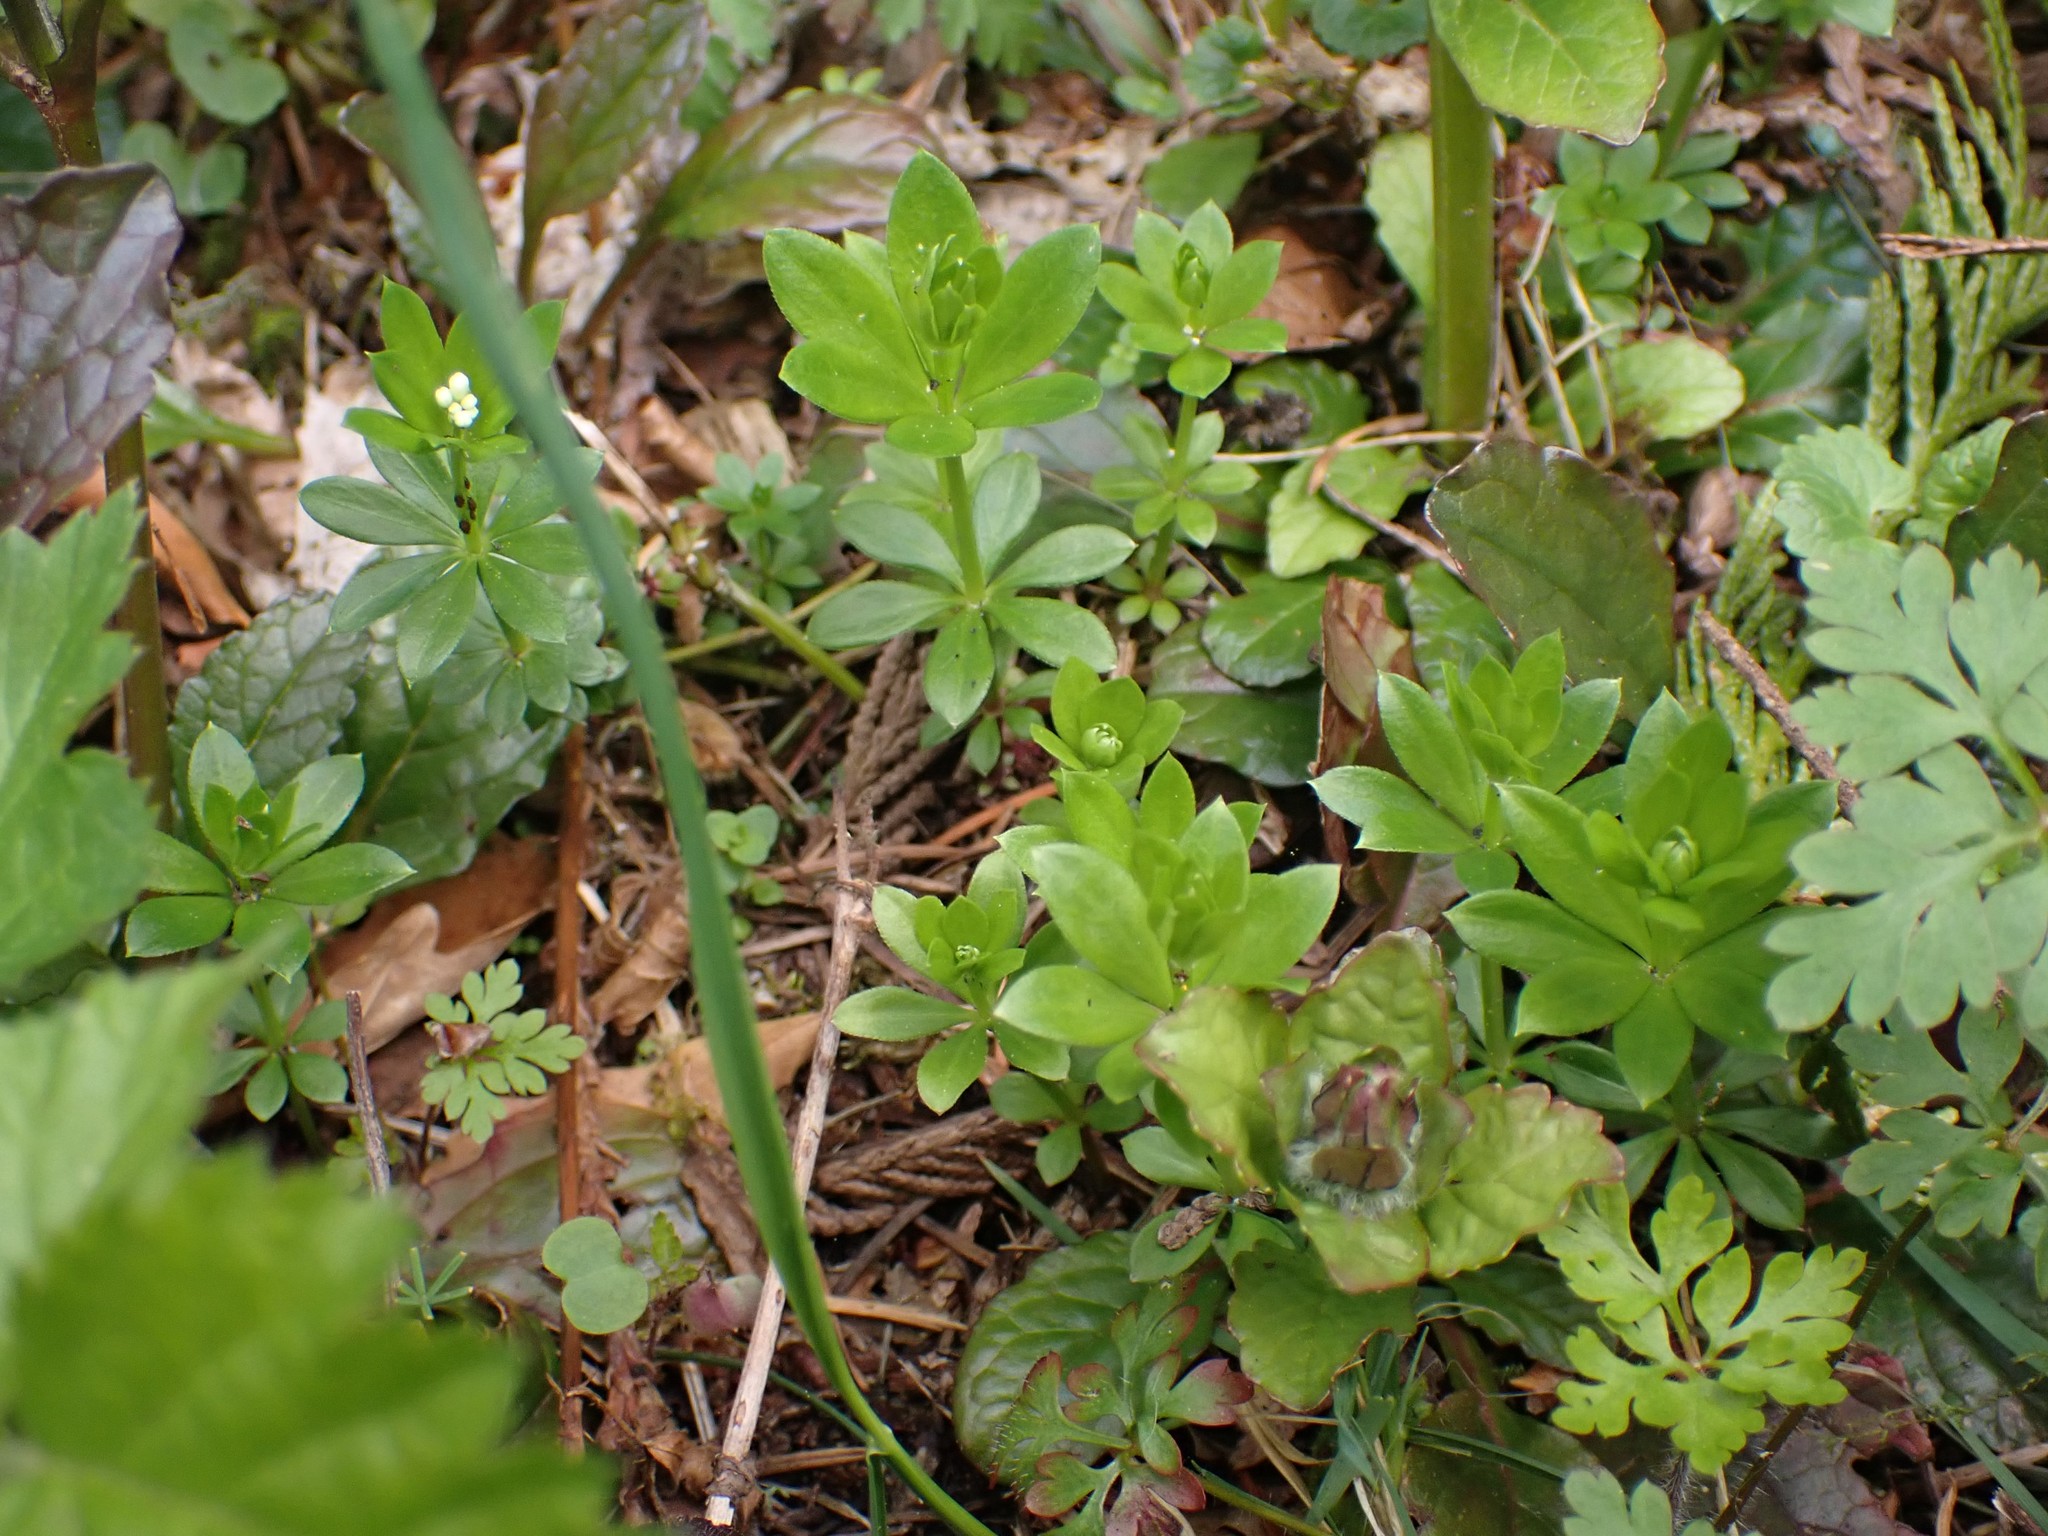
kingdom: Plantae
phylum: Tracheophyta
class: Magnoliopsida
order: Gentianales
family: Rubiaceae
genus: Galium
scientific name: Galium odoratum
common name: Sweet woodruff
